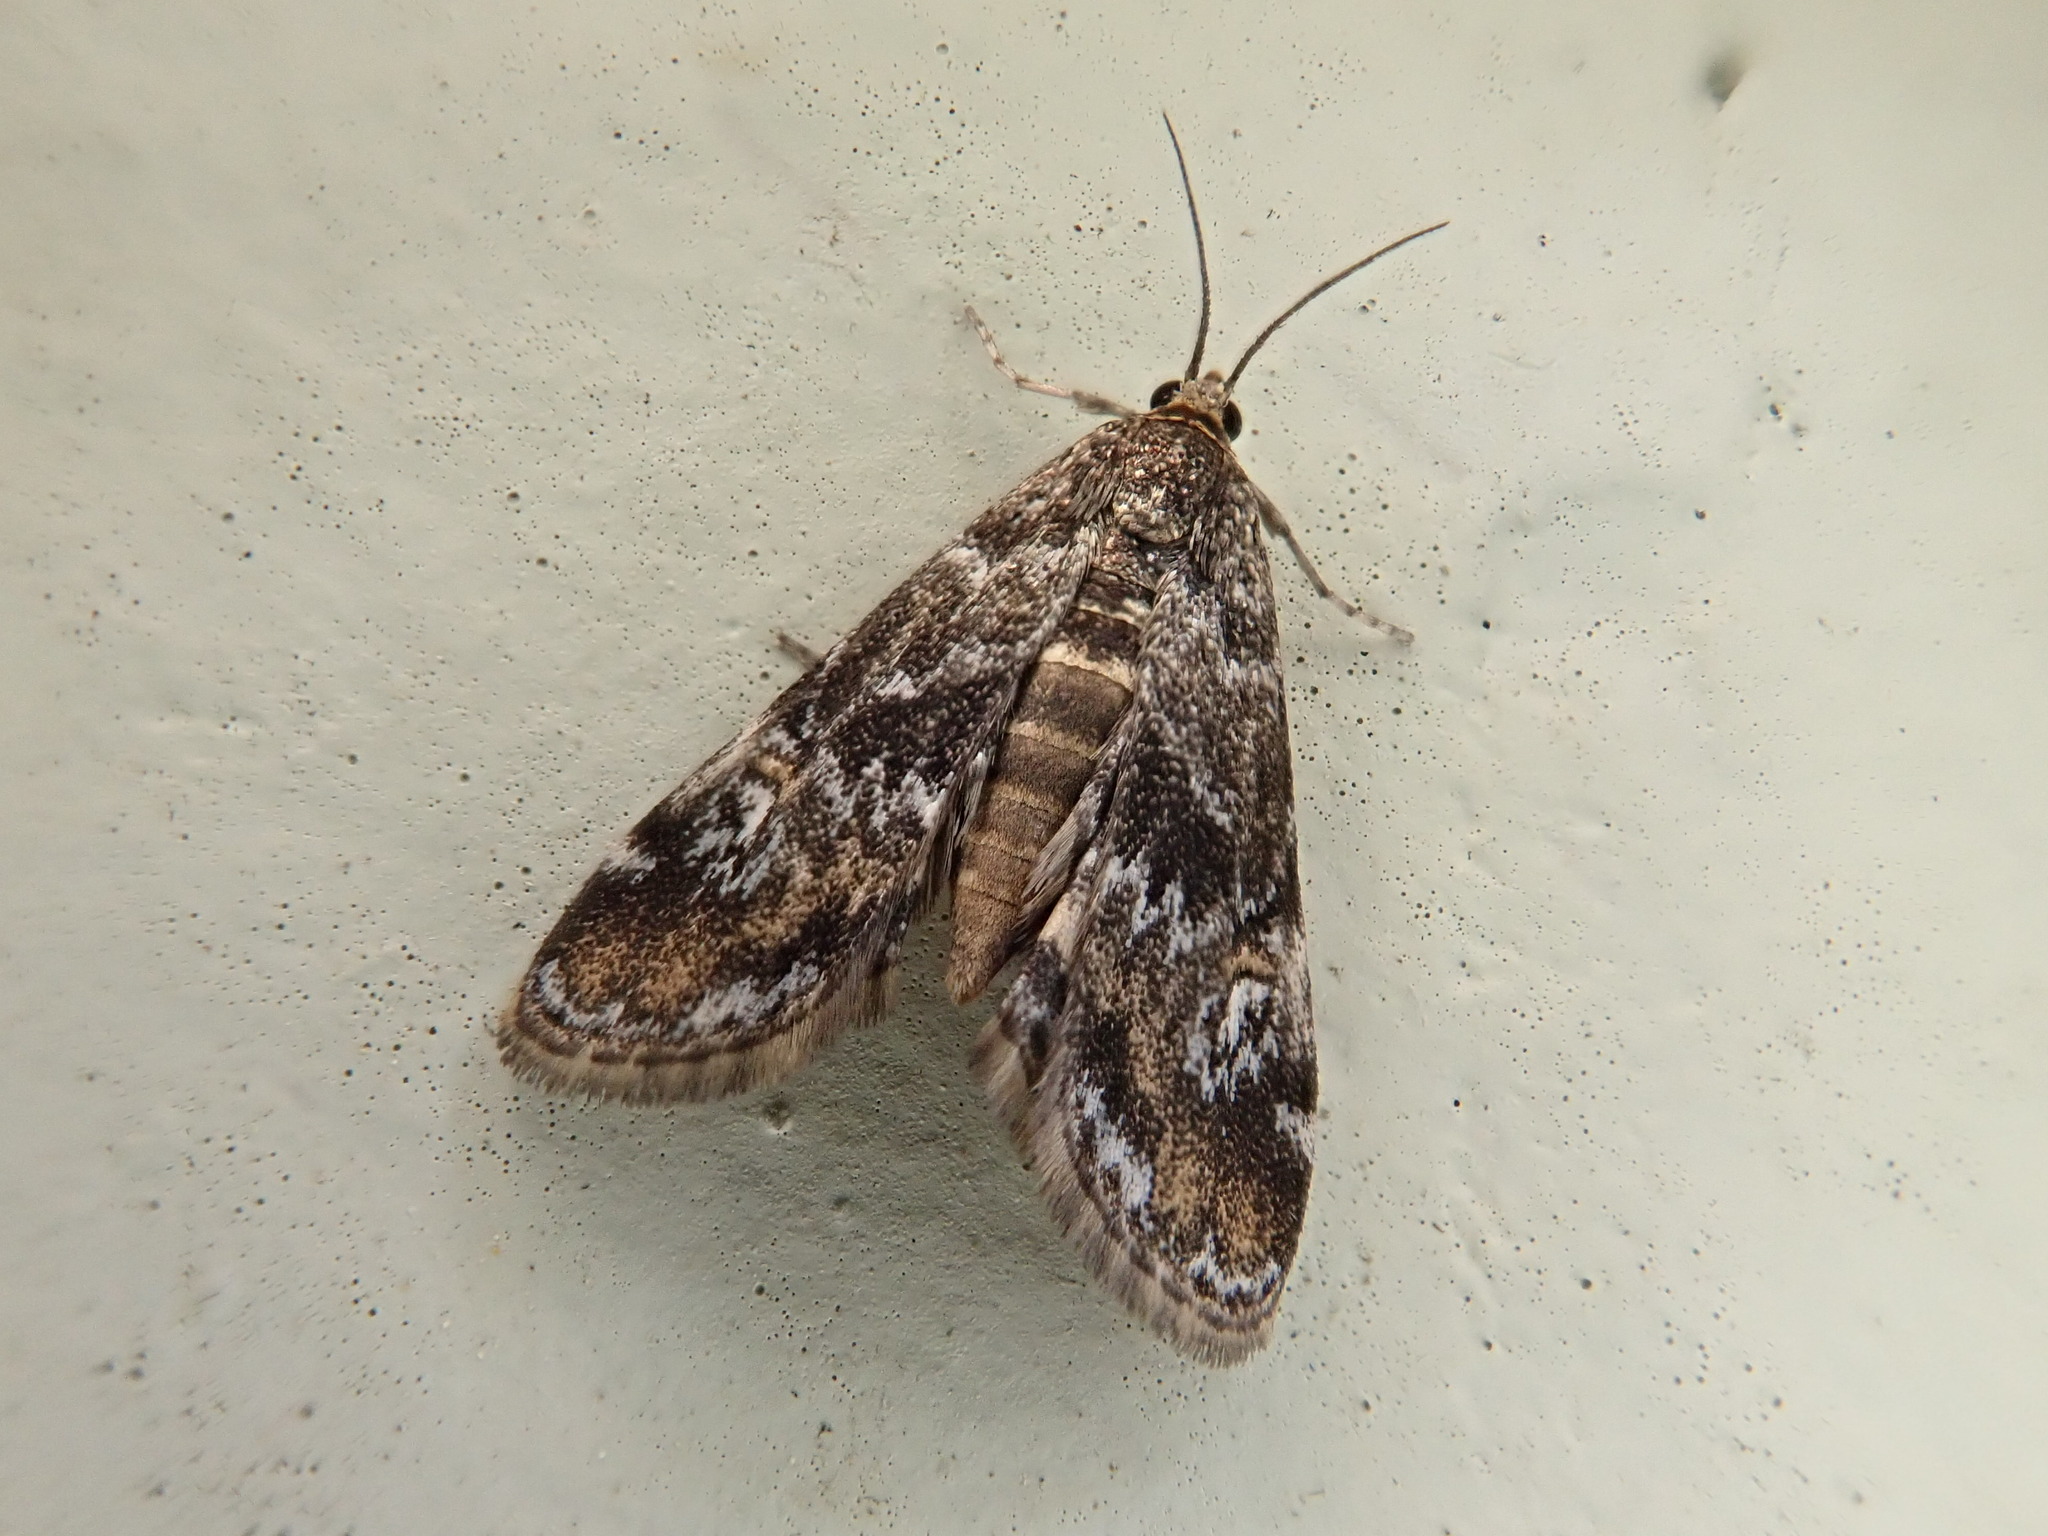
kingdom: Animalia
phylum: Arthropoda
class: Insecta
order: Lepidoptera
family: Crambidae
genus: Elophila
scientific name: Elophila obliteralis
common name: Waterlily leafcutter moth
